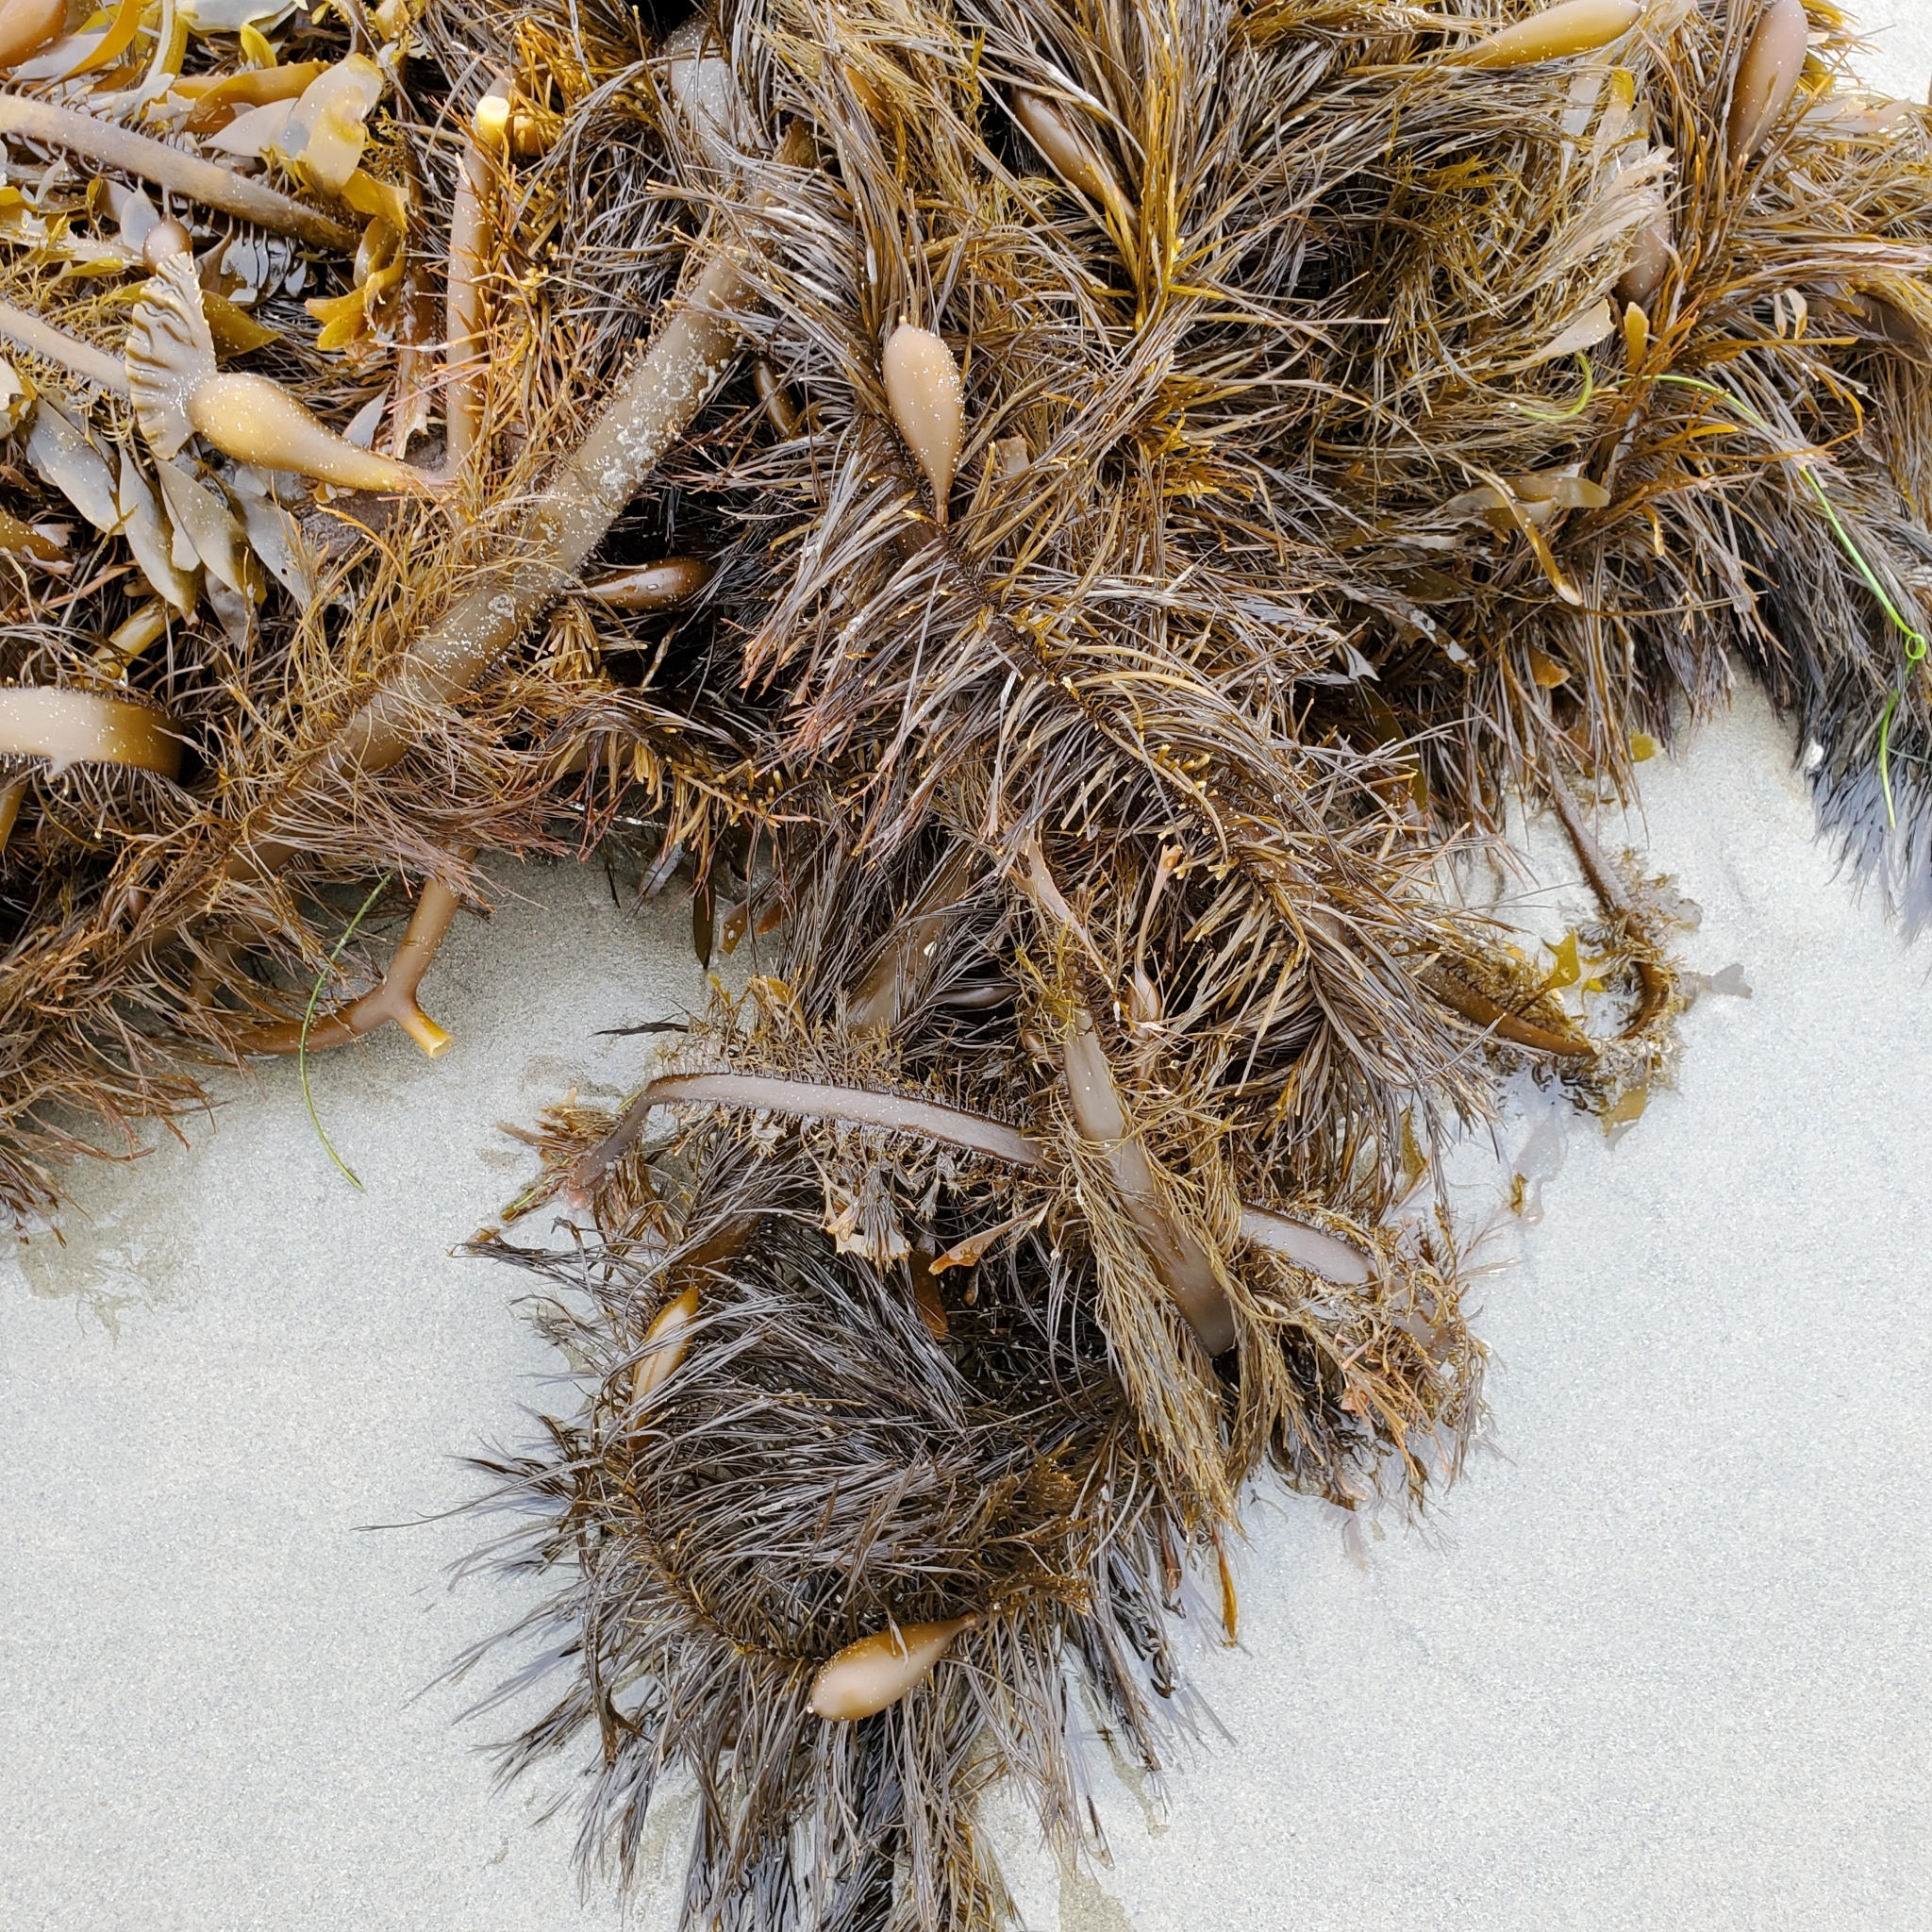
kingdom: Chromista
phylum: Ochrophyta
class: Phaeophyceae
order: Laminariales
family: Lessoniaceae
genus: Egregia
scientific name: Egregia menziesii
